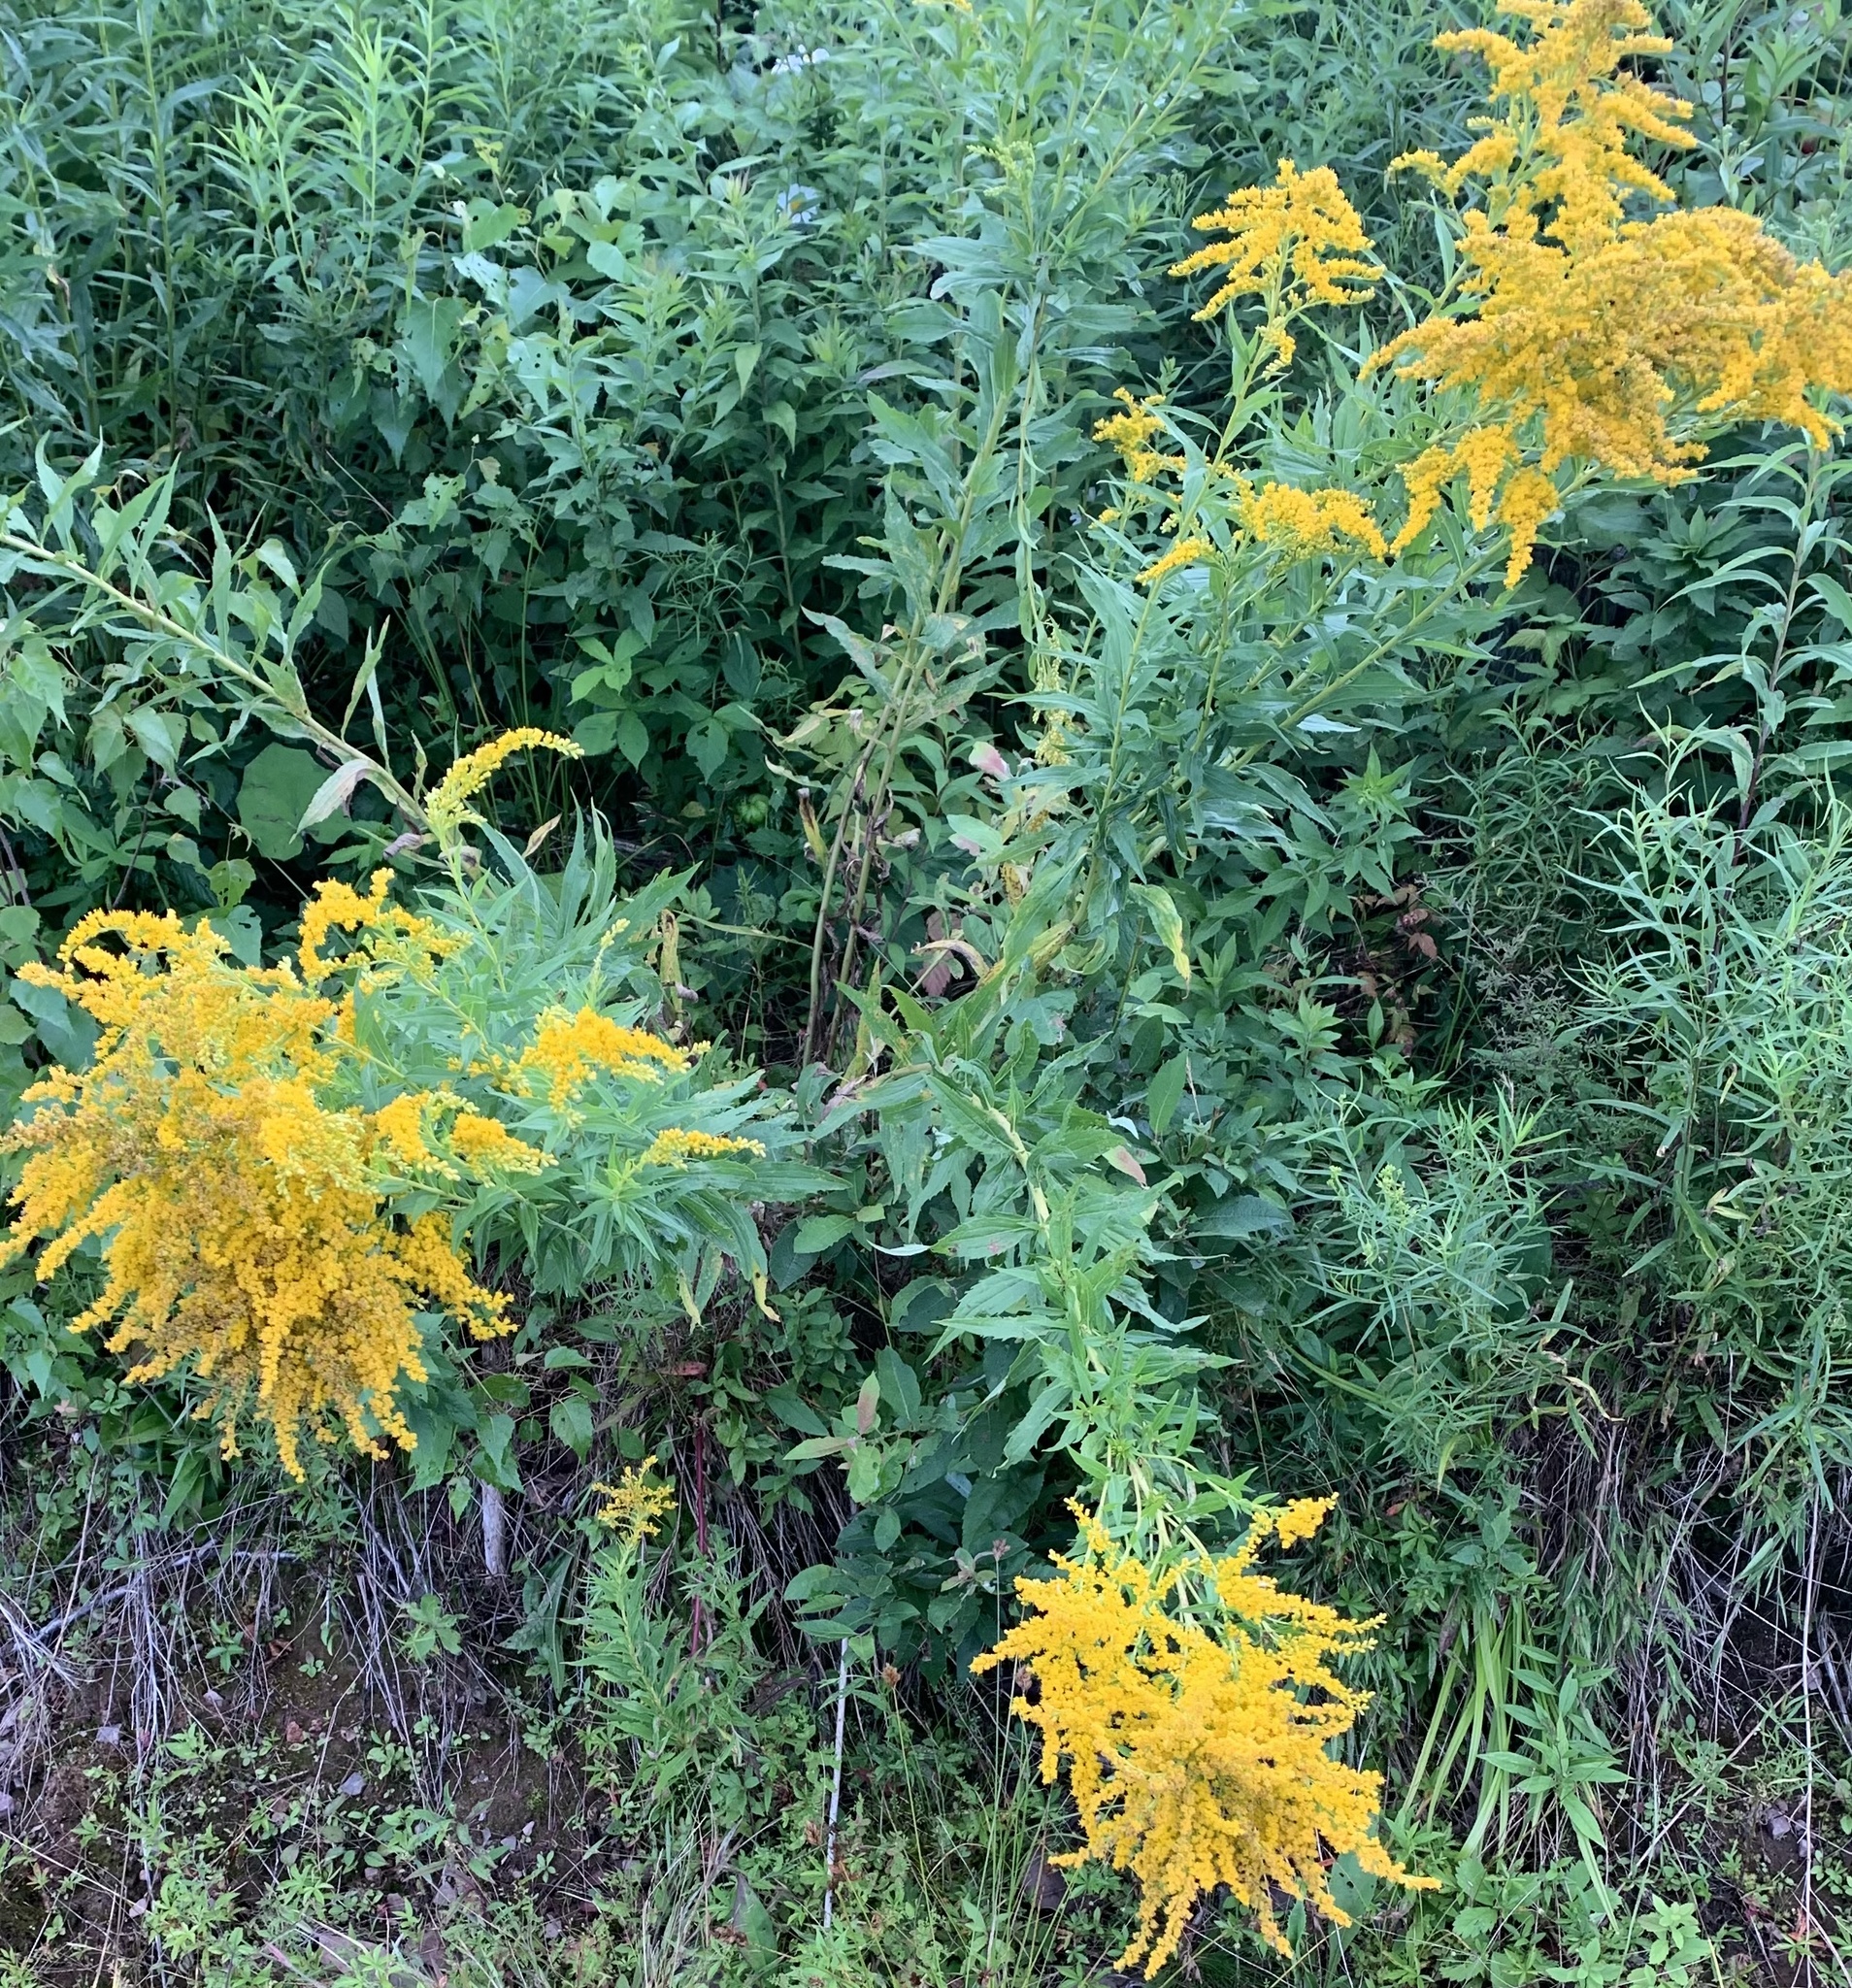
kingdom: Plantae
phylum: Tracheophyta
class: Magnoliopsida
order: Asterales
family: Asteraceae
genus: Solidago
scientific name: Solidago canadensis
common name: Canada goldenrod
